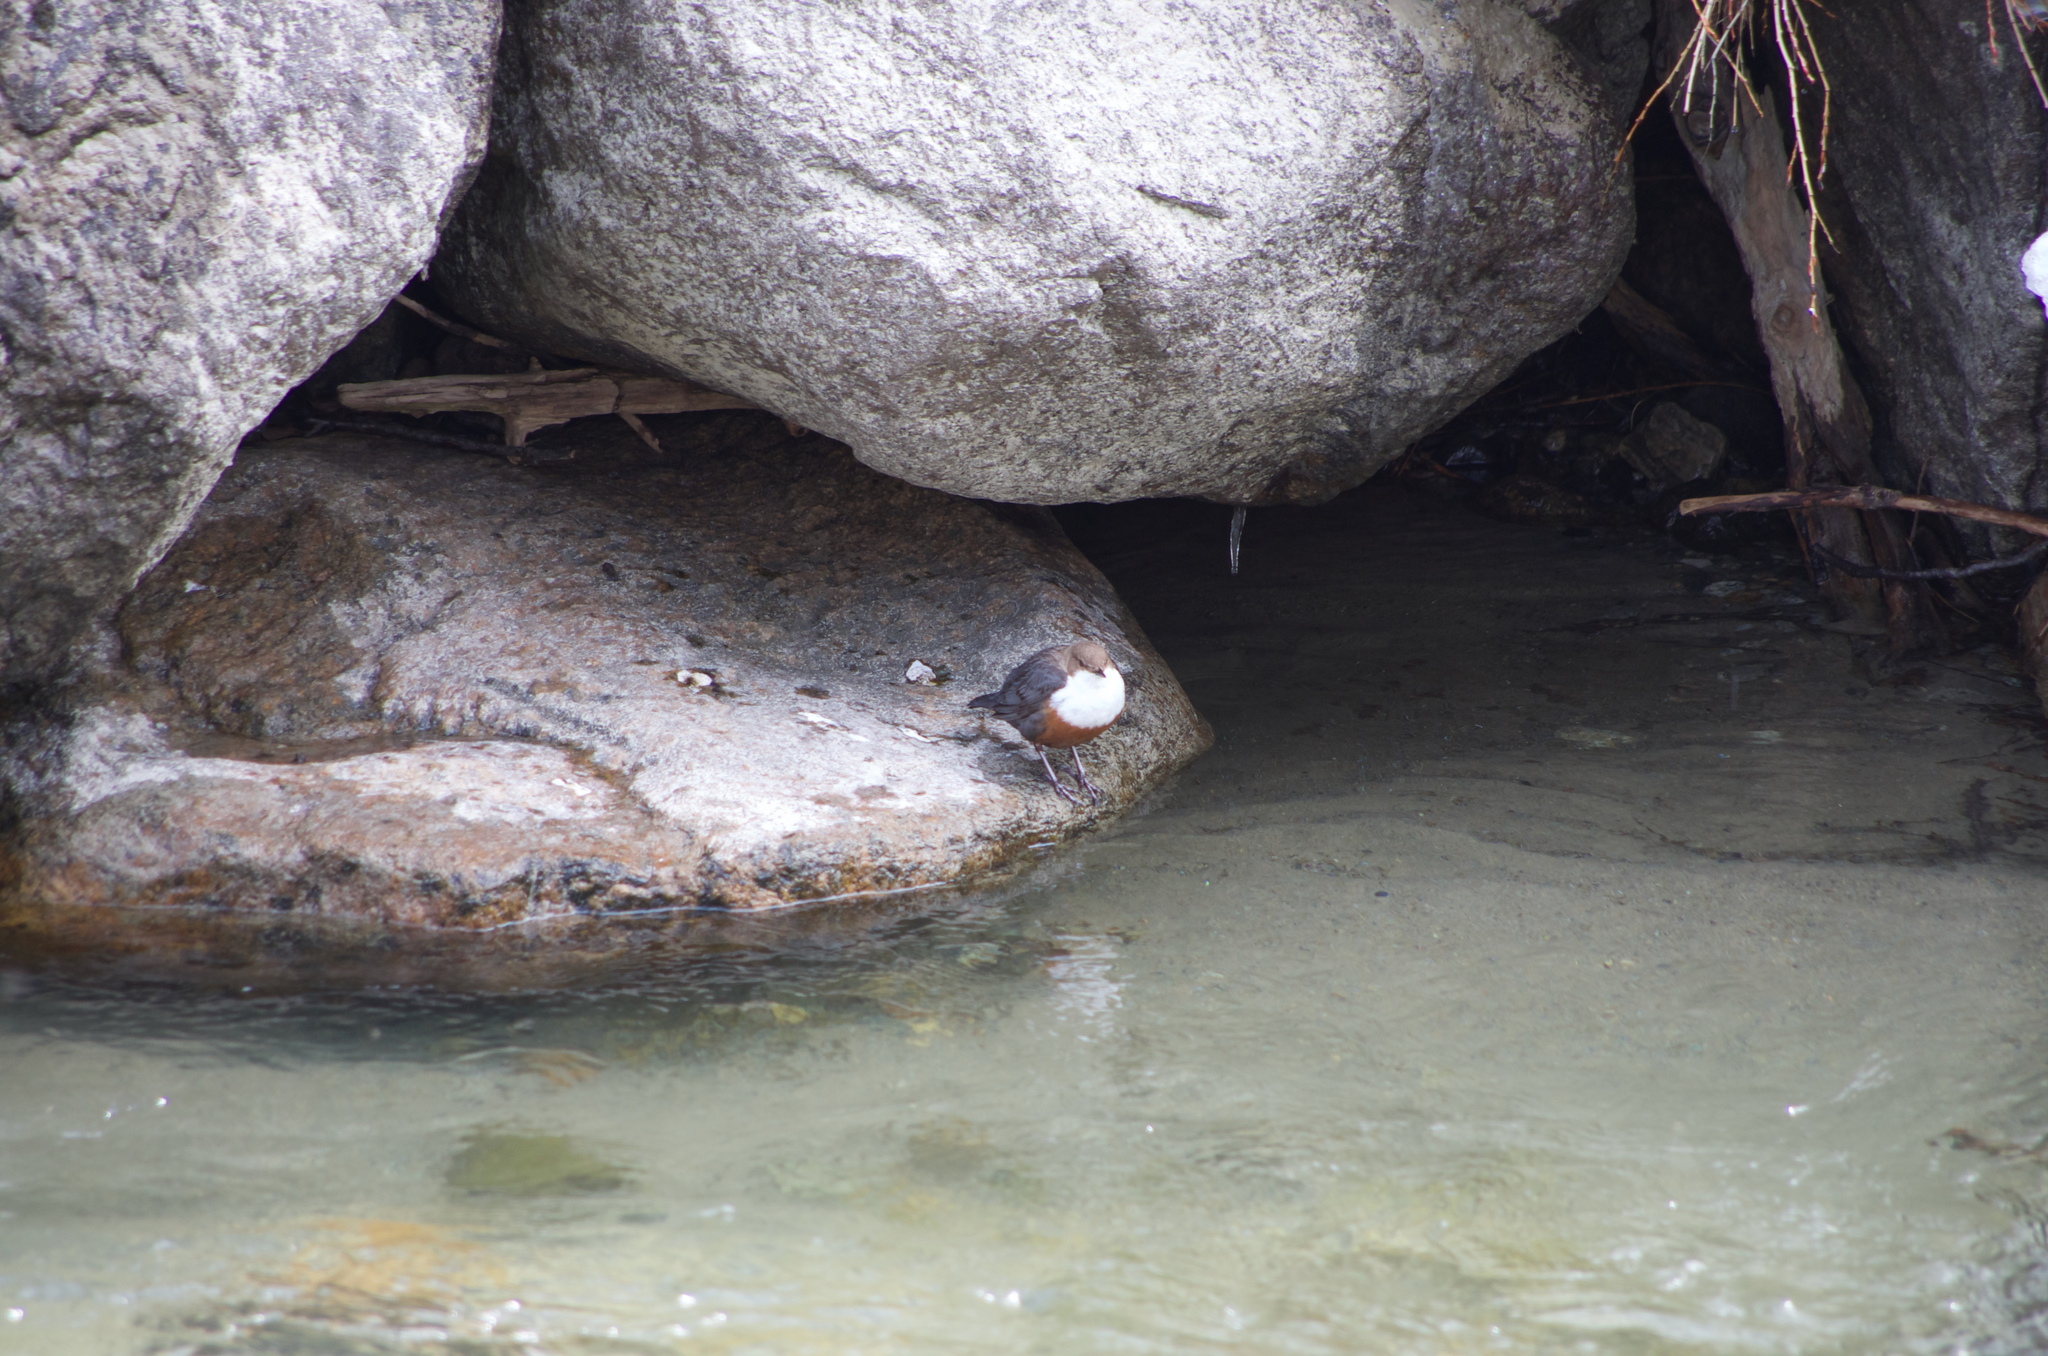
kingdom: Animalia
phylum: Chordata
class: Aves
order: Passeriformes
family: Cinclidae
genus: Cinclus
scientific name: Cinclus cinclus
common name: White-throated dipper
